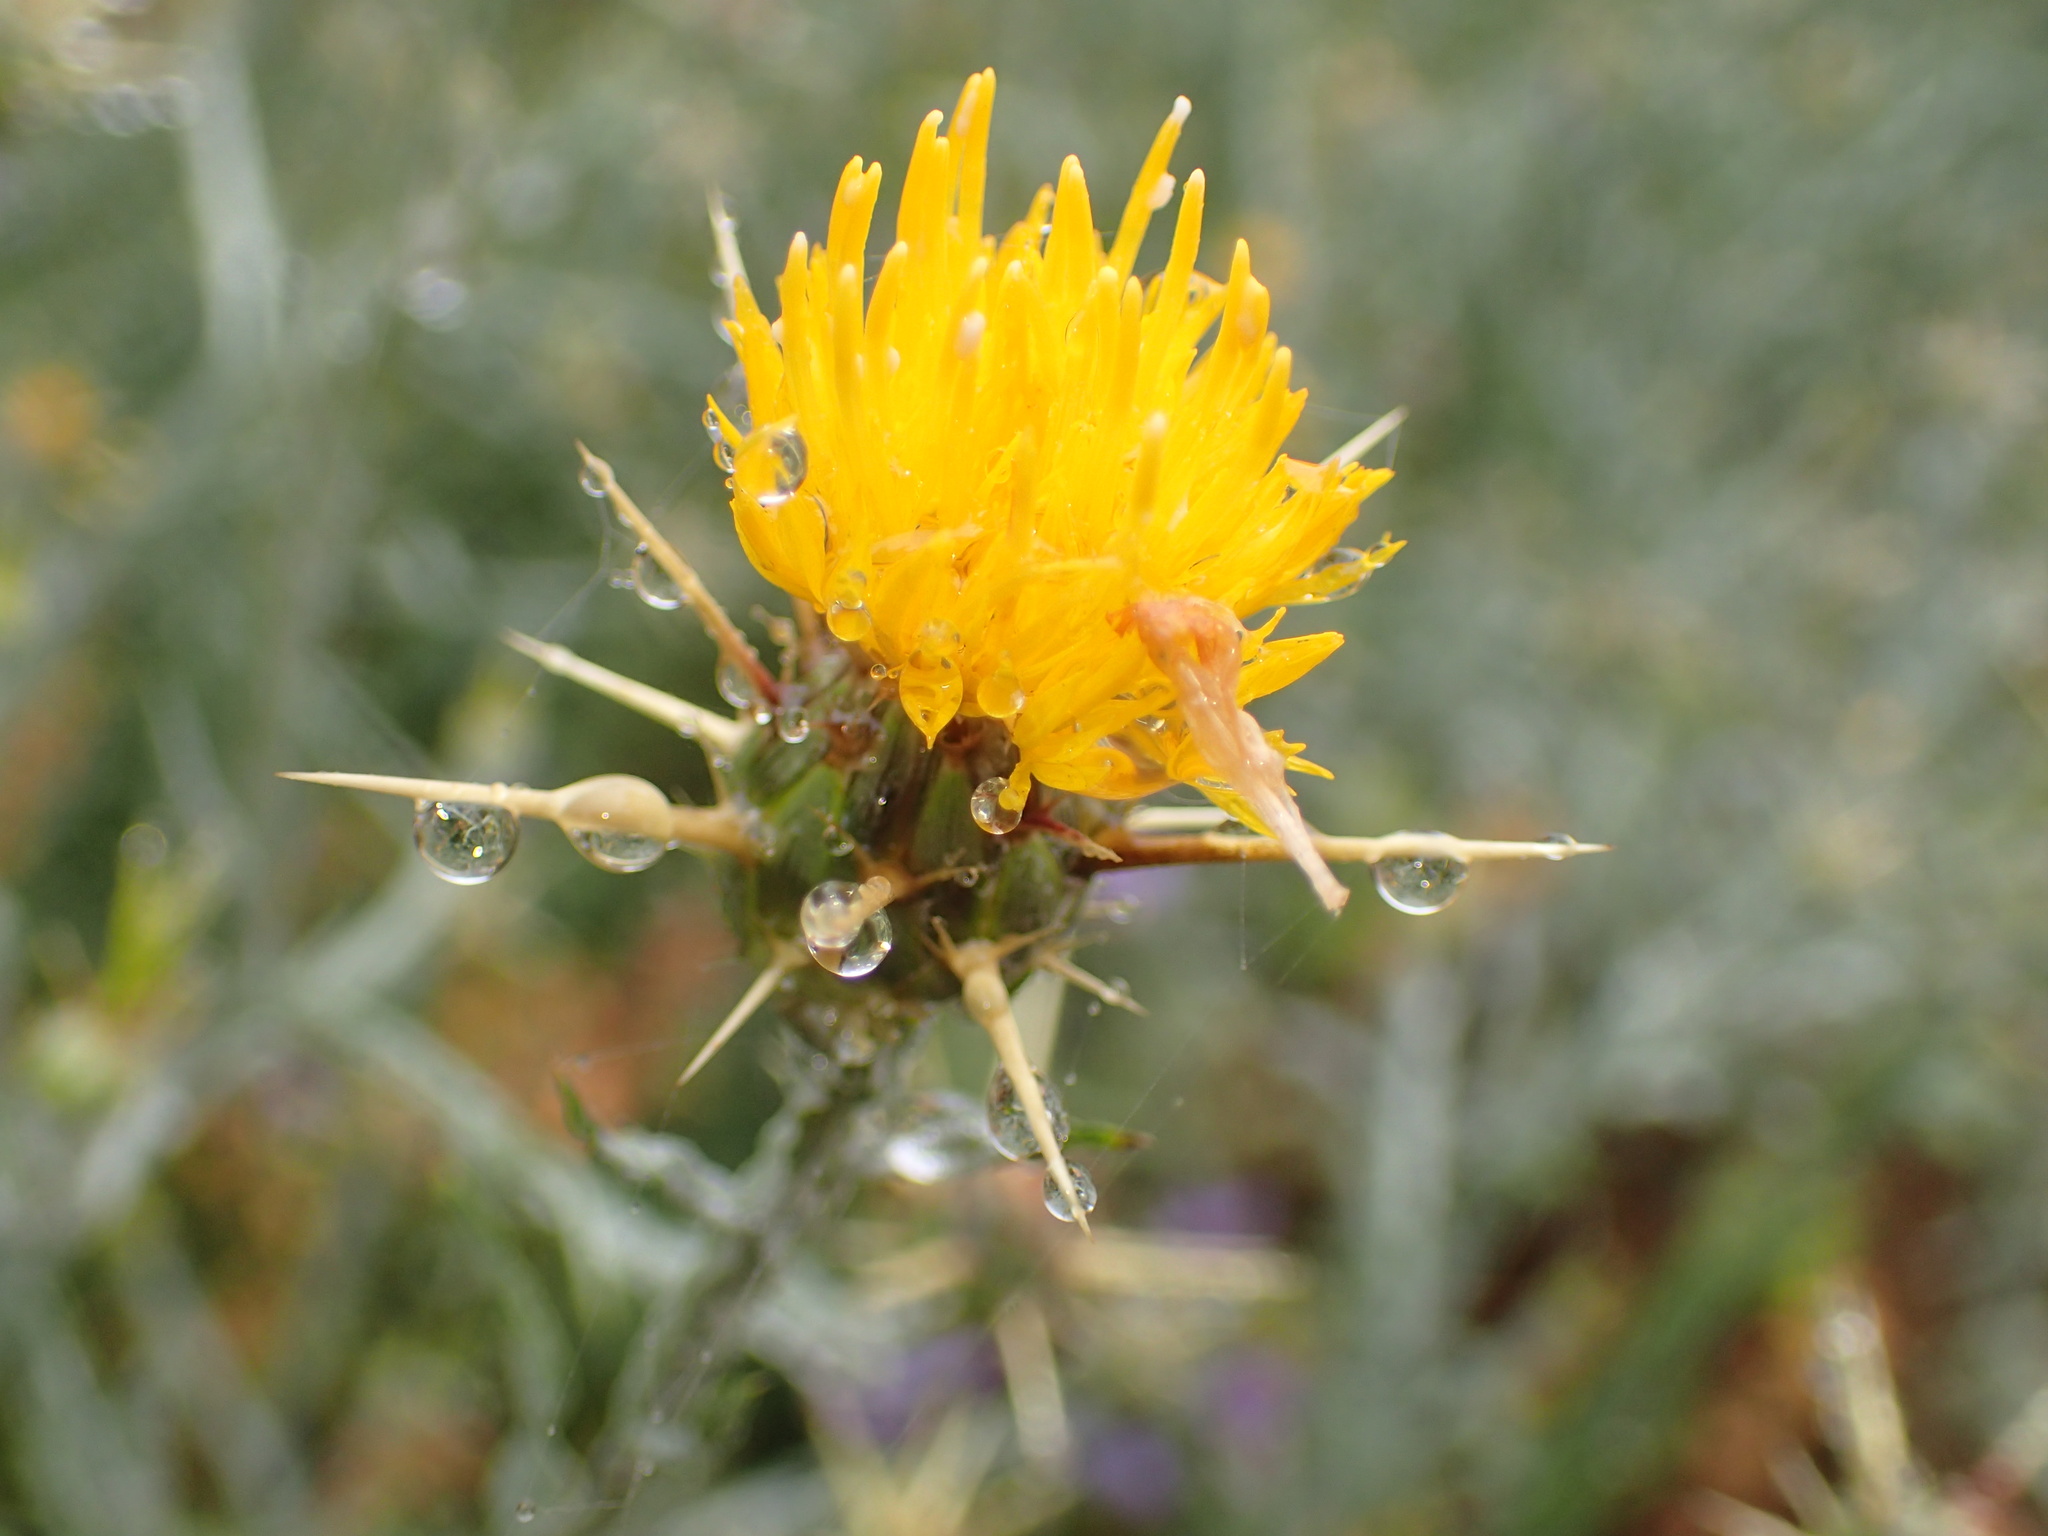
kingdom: Plantae
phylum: Tracheophyta
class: Magnoliopsida
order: Asterales
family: Asteraceae
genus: Centaurea
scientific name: Centaurea solstitialis
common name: Yellow star-thistle
